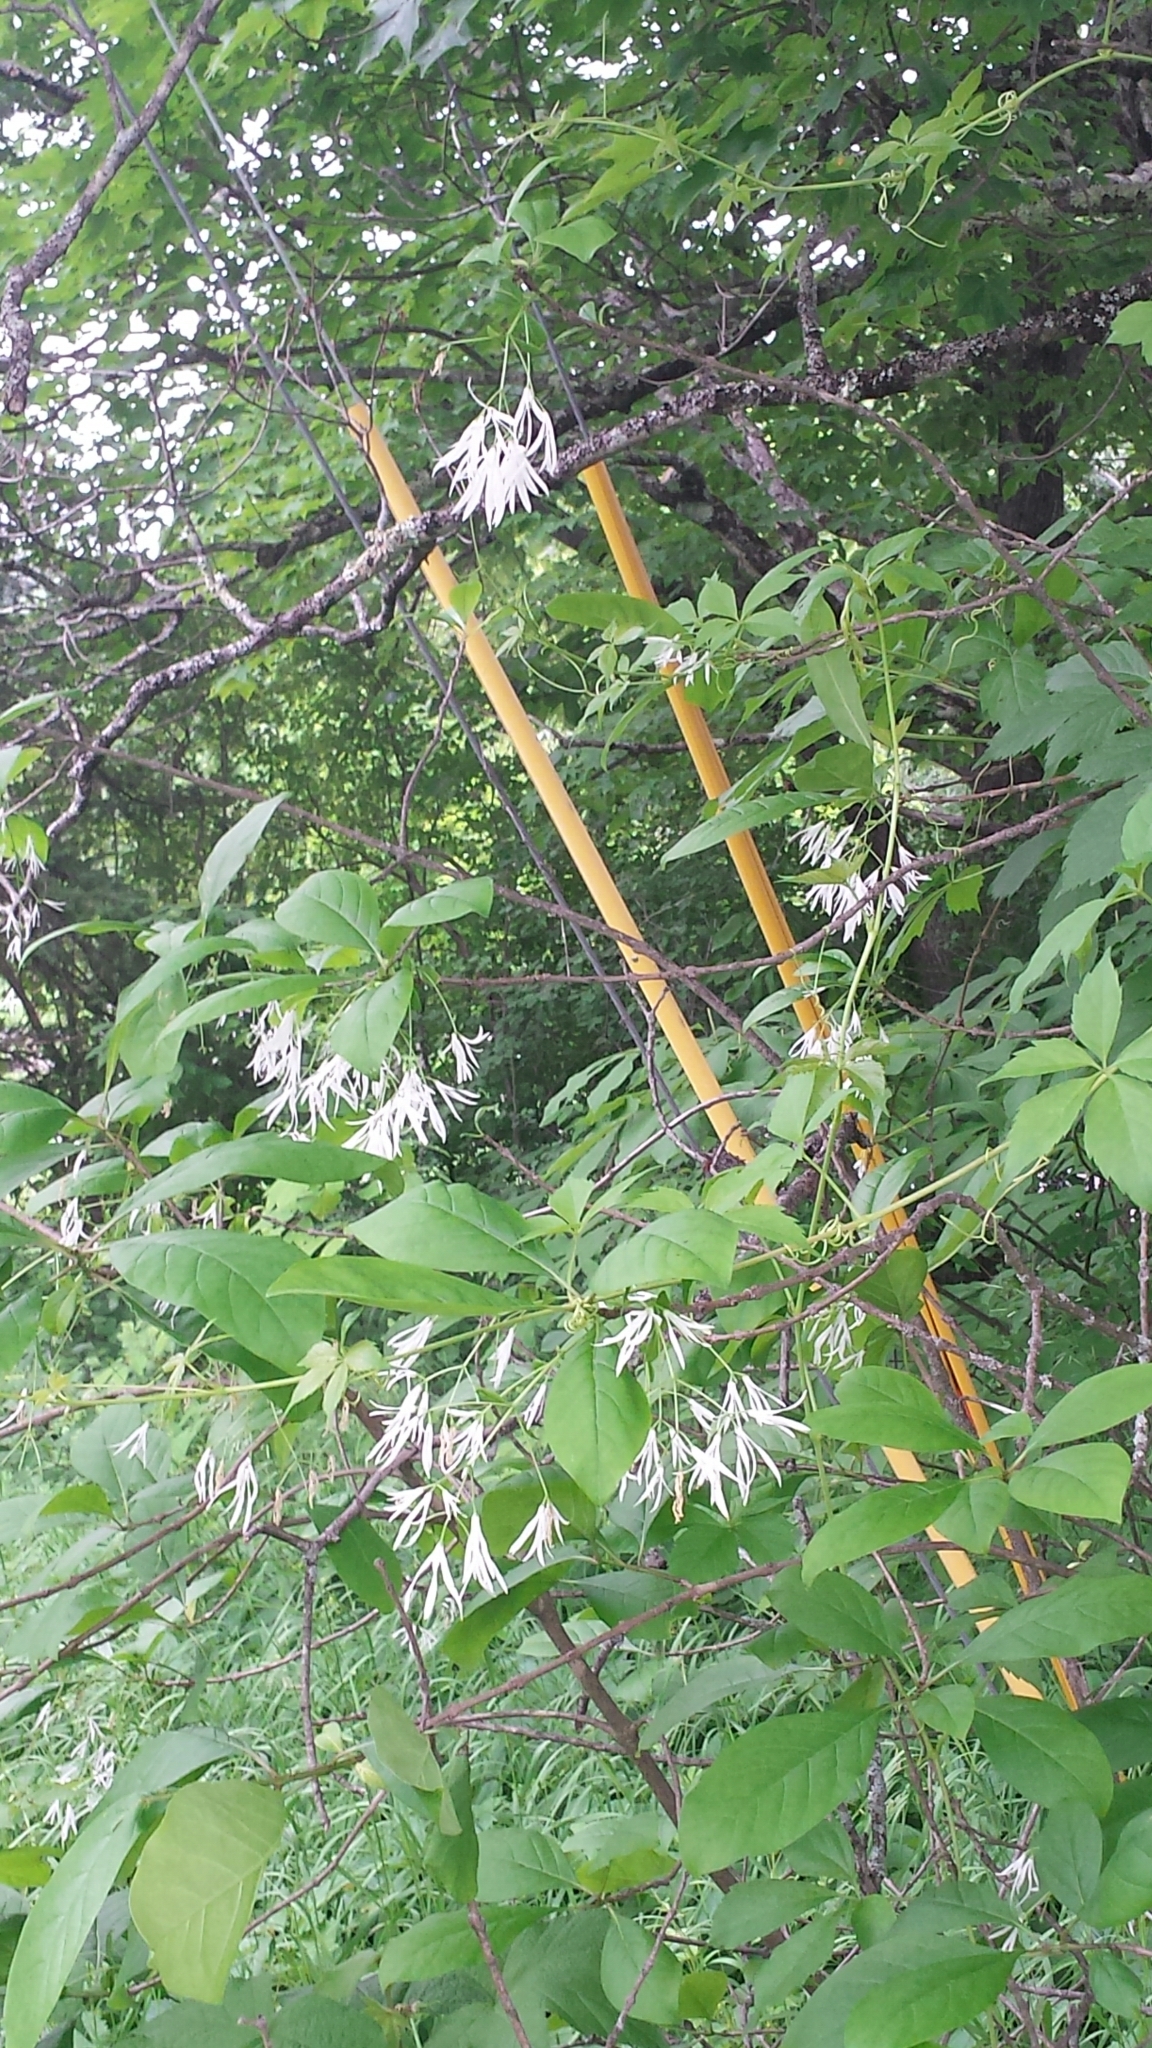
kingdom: Plantae
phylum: Tracheophyta
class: Magnoliopsida
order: Lamiales
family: Oleaceae
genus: Chionanthus
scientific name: Chionanthus virginicus
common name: American fringetree
